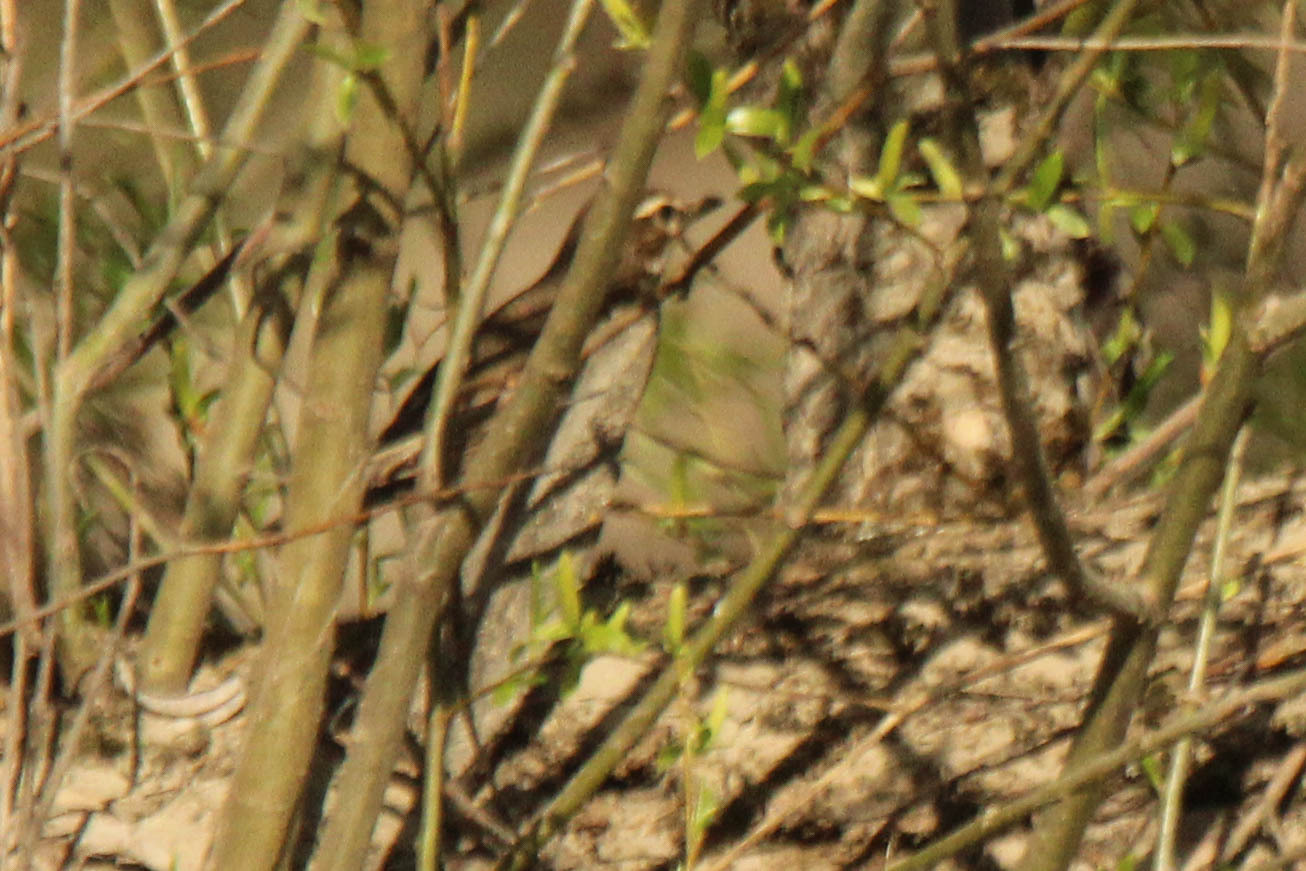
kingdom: Animalia
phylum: Chordata
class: Aves
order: Passeriformes
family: Turdidae
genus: Turdus
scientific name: Turdus iliacus
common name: Redwing
